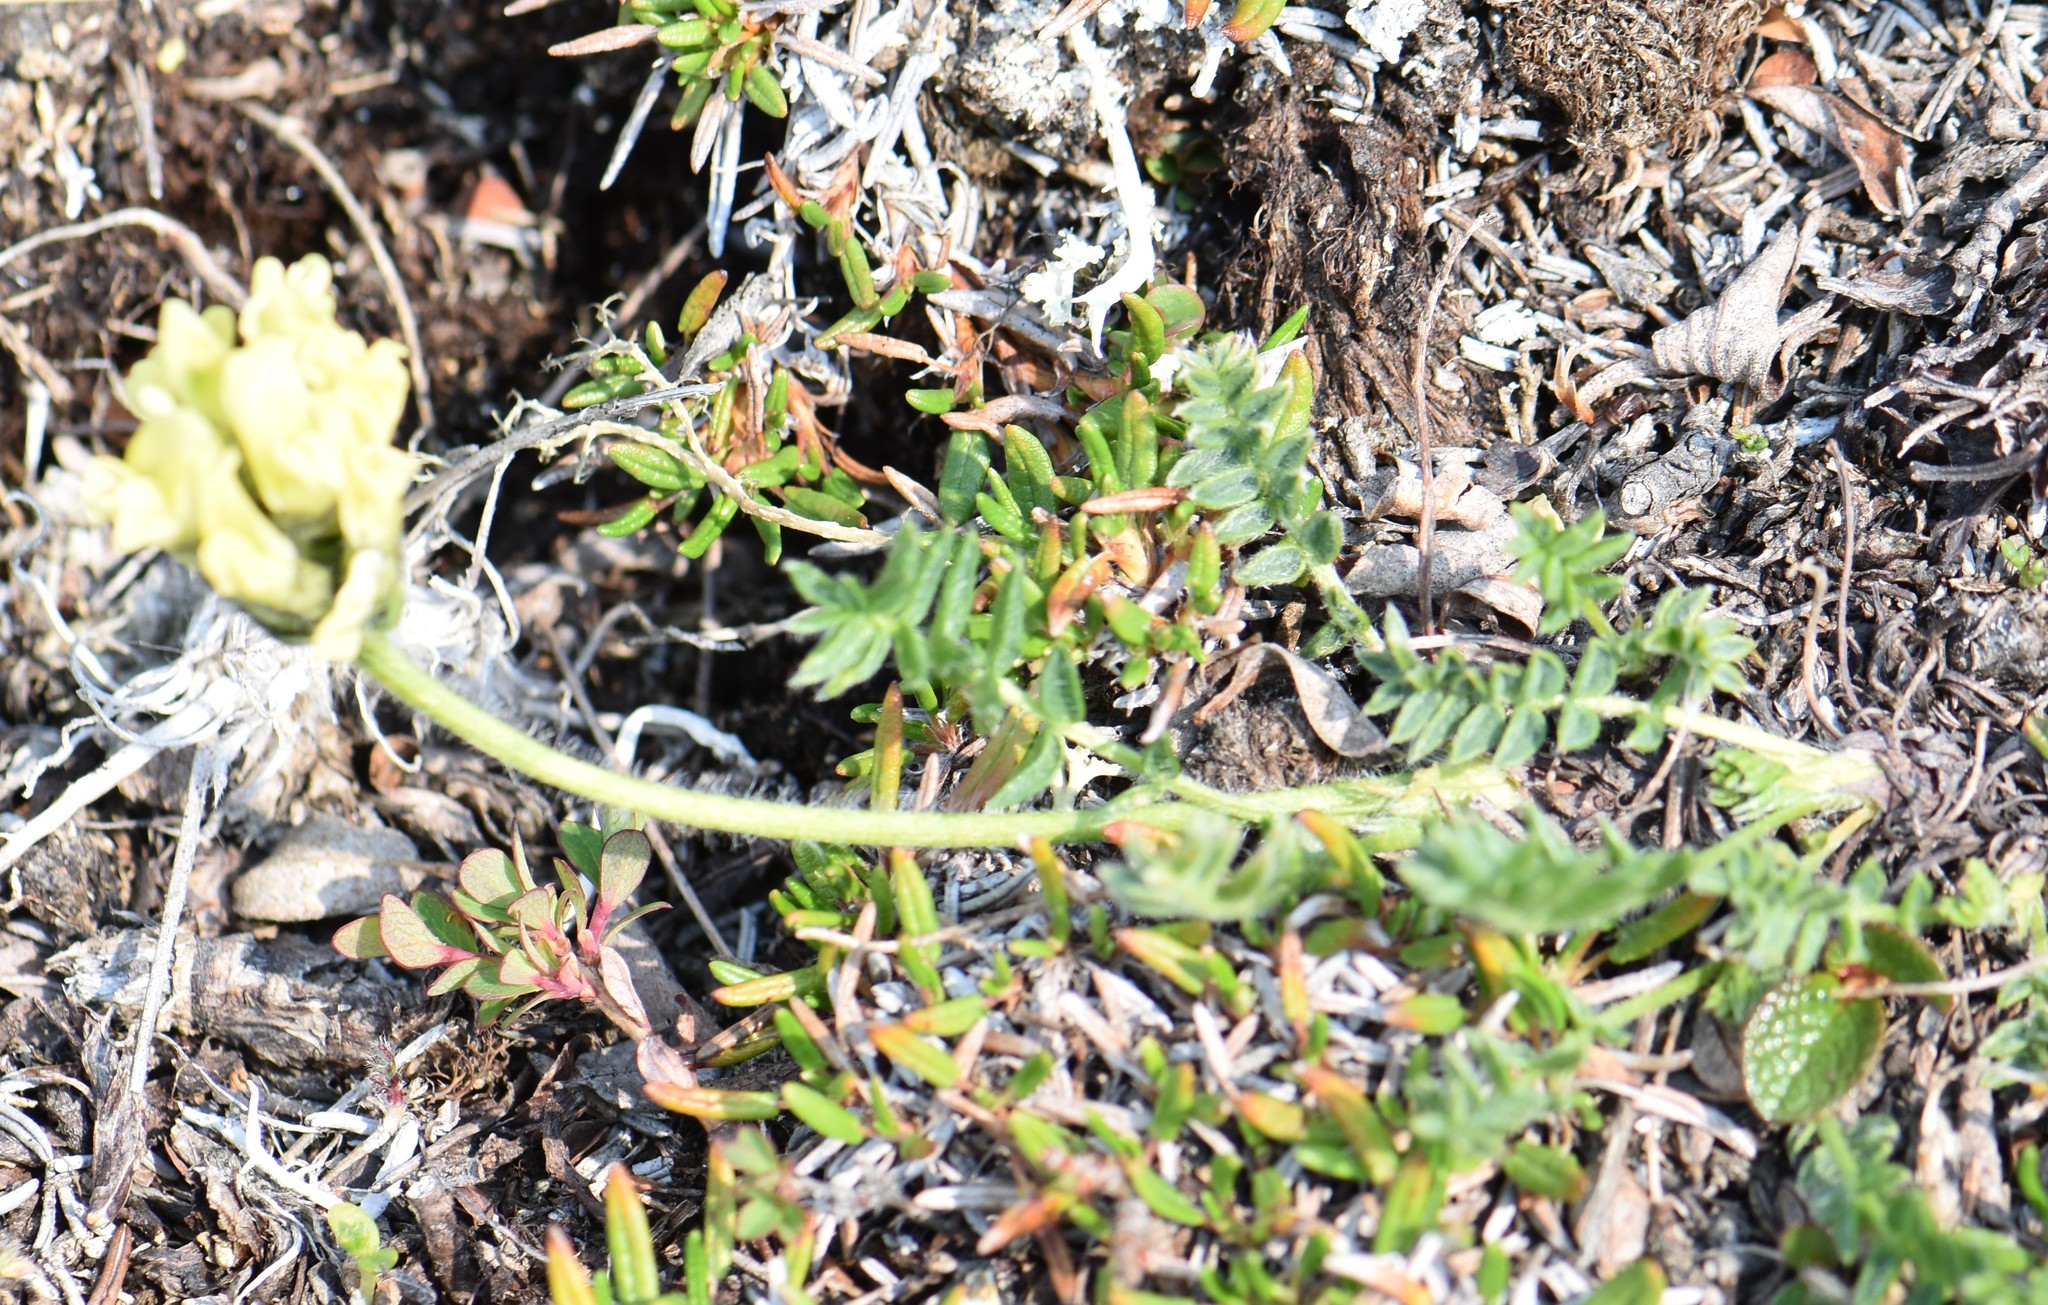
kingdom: Plantae
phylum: Tracheophyta
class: Magnoliopsida
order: Fabales
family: Fabaceae
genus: Oxytropis
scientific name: Oxytropis maydelliana
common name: Maydell's locoweed
